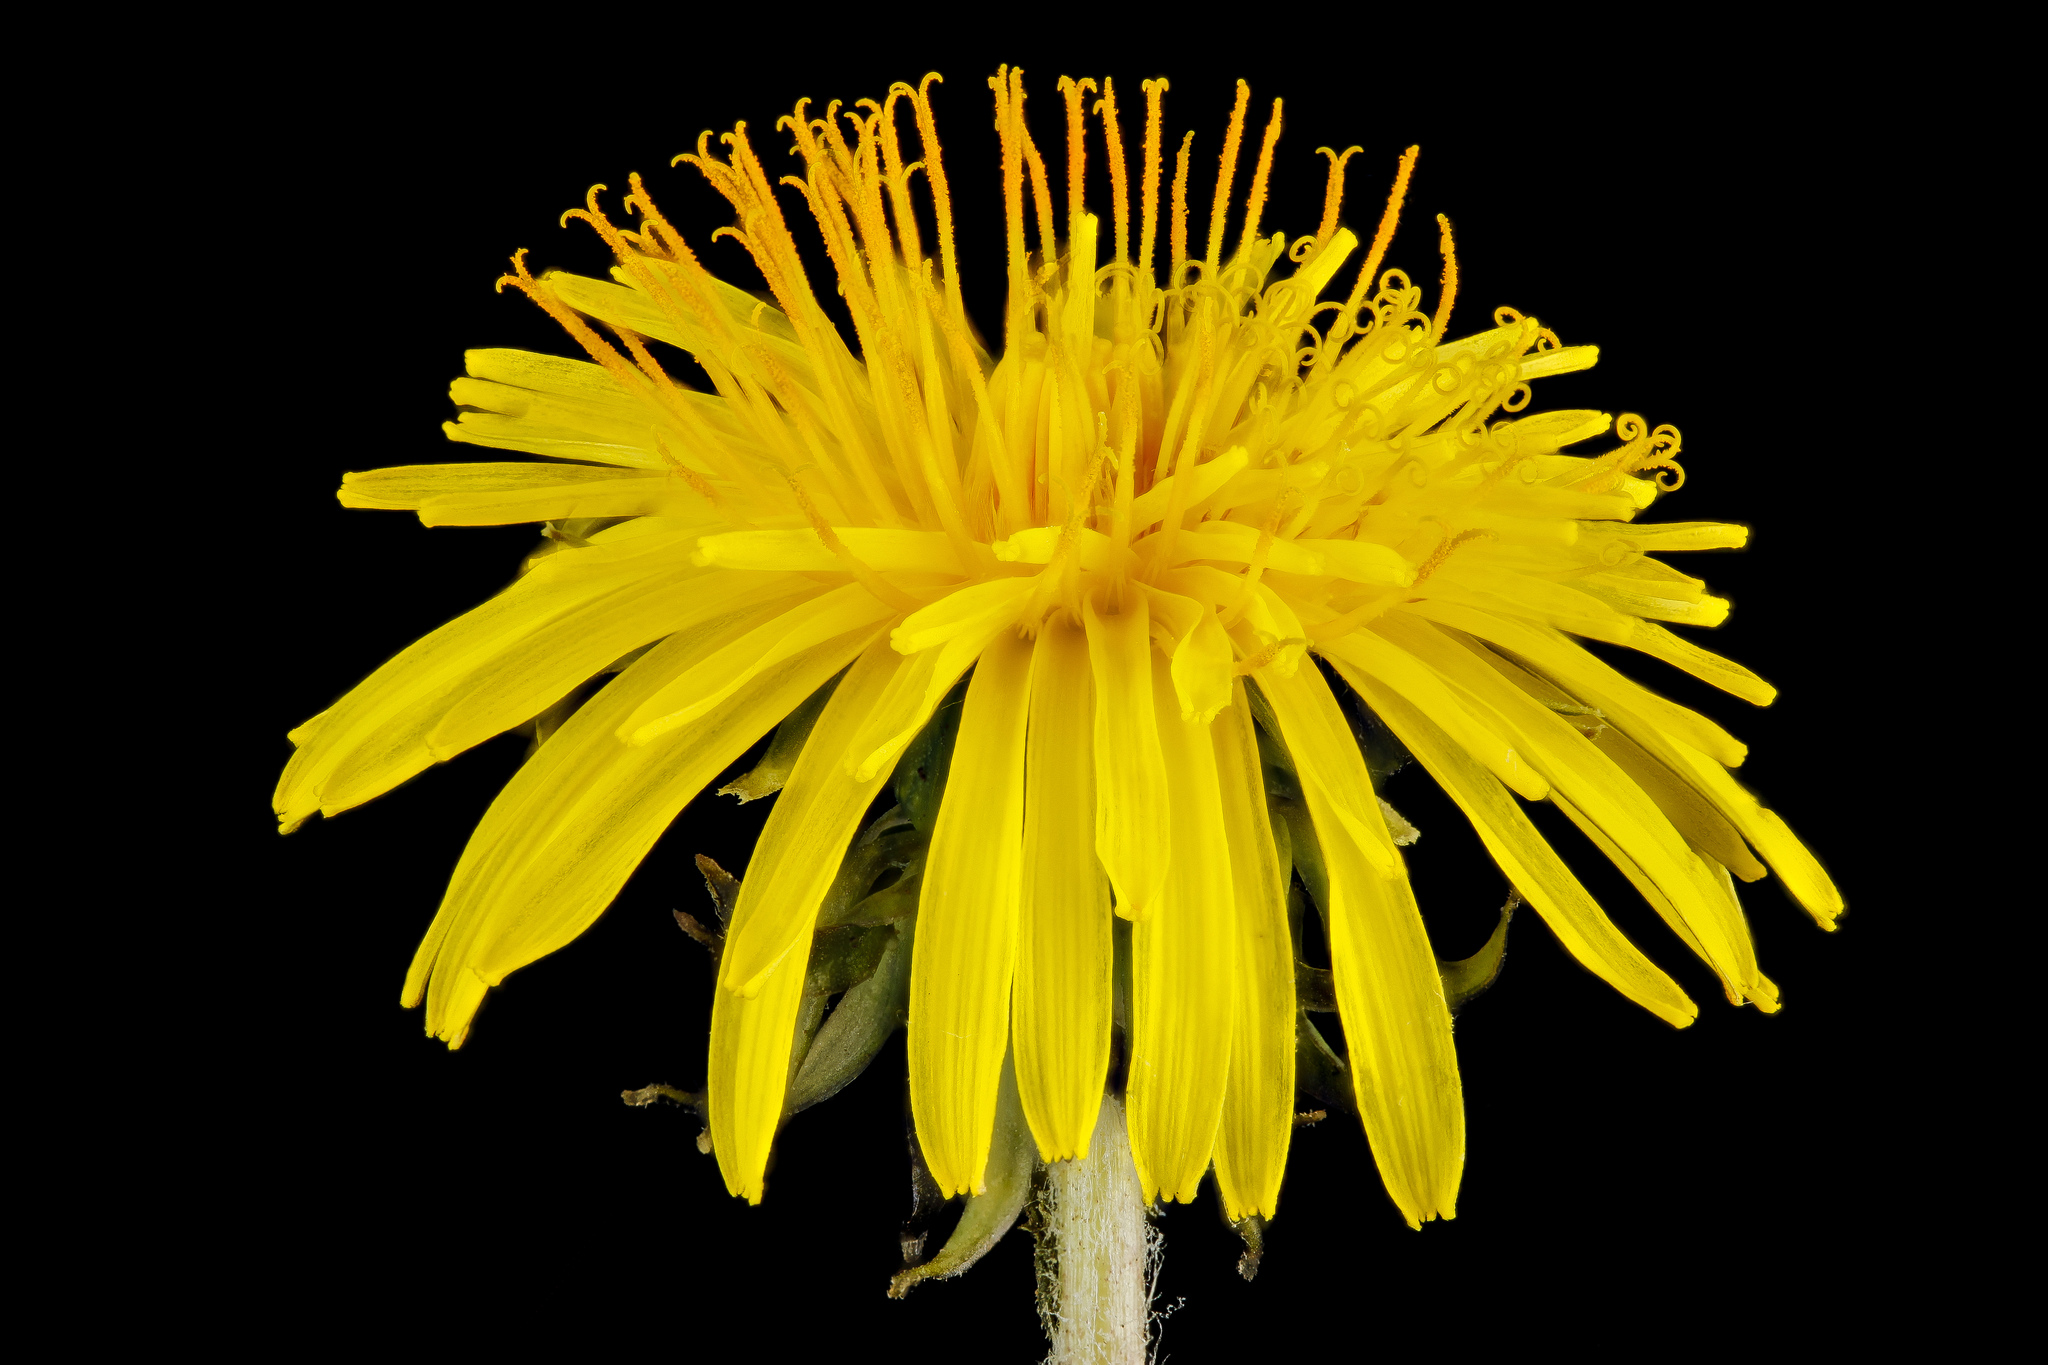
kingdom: Plantae
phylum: Tracheophyta
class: Magnoliopsida
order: Asterales
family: Asteraceae
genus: Taraxacum
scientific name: Taraxacum officinale
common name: Common dandelion
